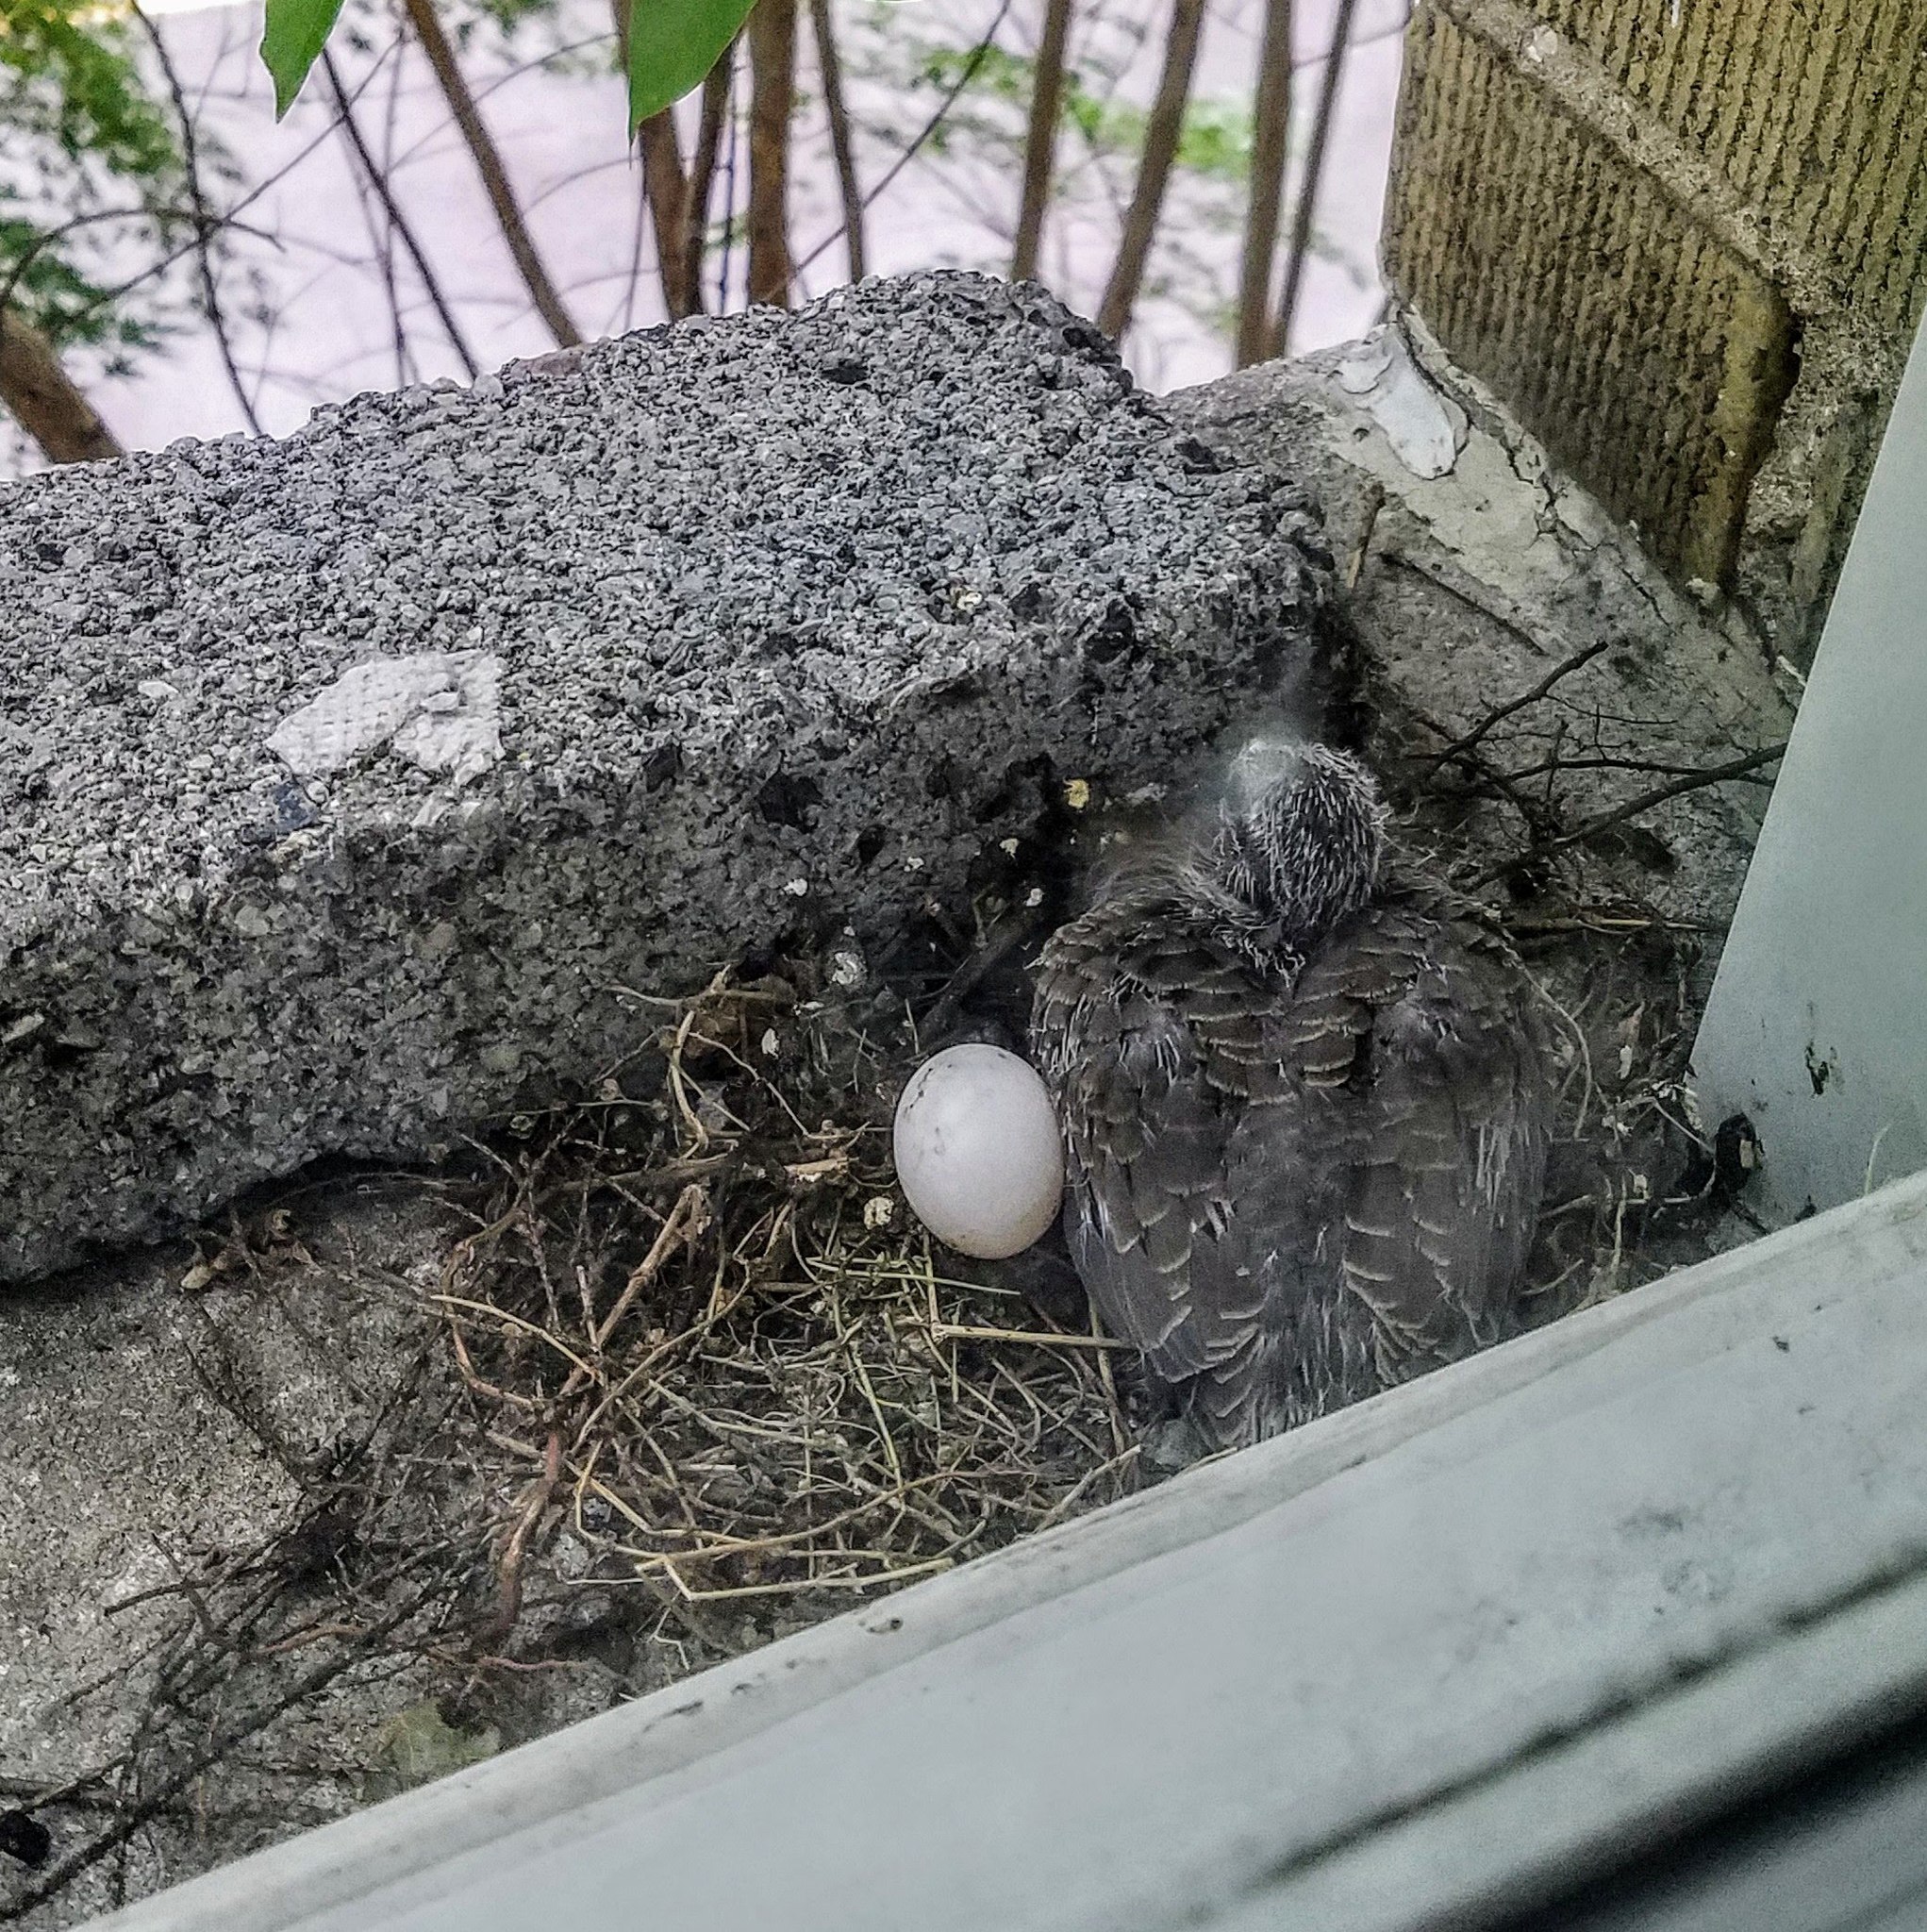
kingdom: Animalia
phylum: Chordata
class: Aves
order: Columbiformes
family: Columbidae
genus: Zenaida
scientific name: Zenaida macroura
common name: Mourning dove
